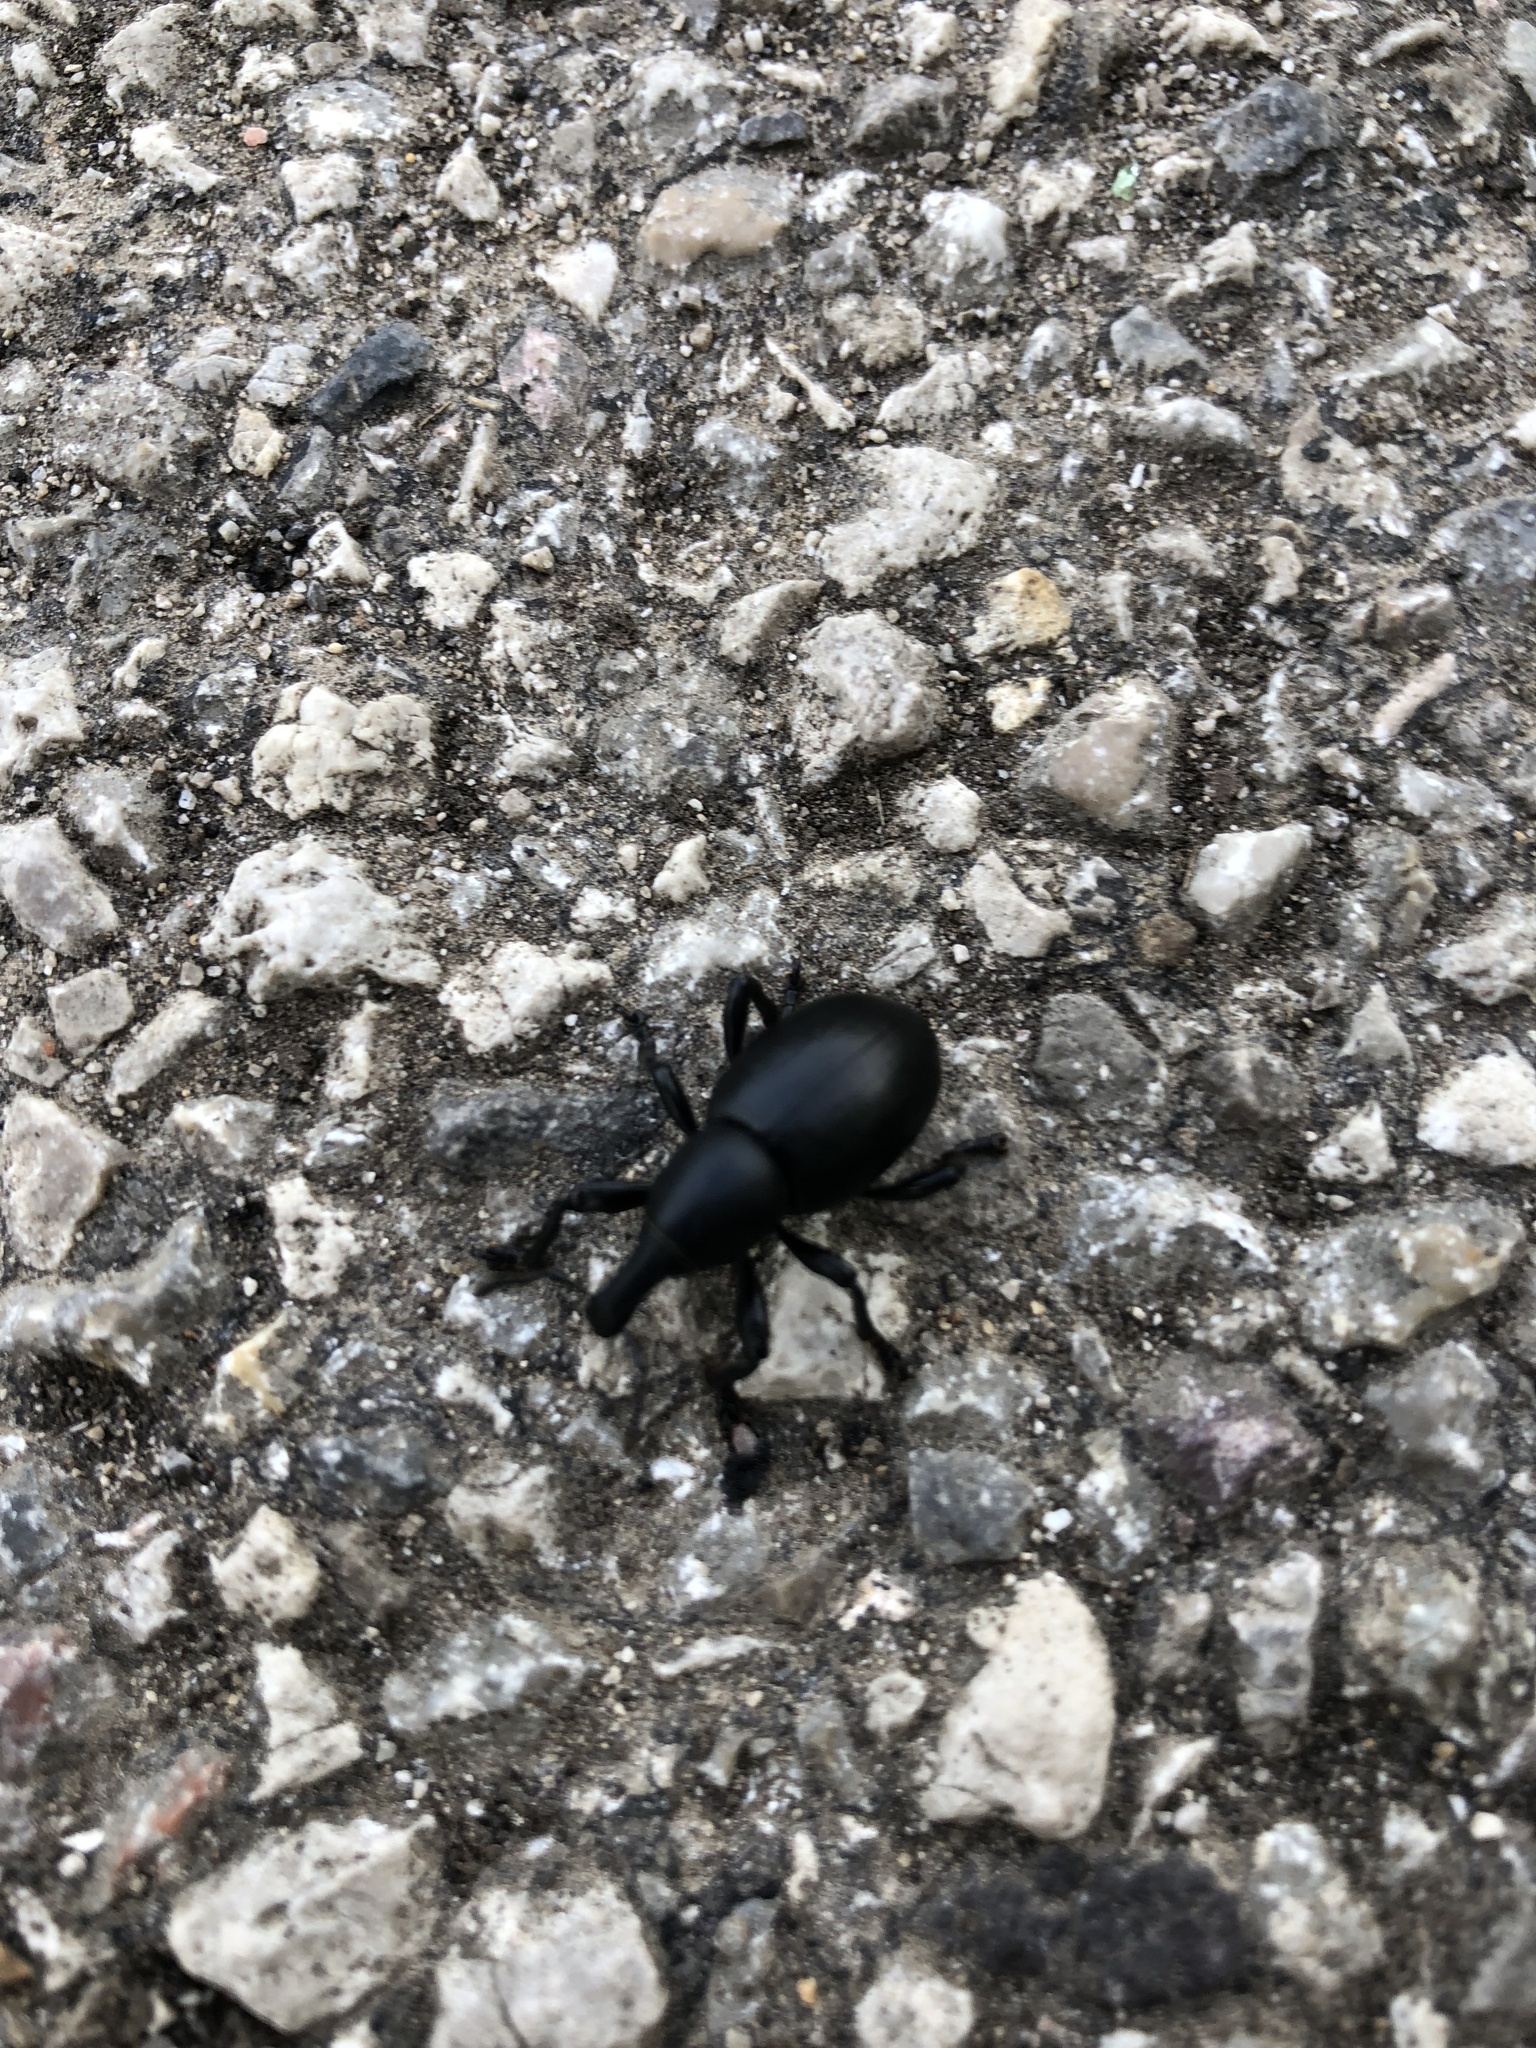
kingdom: Animalia
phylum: Arthropoda
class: Insecta
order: Coleoptera
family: Curculionidae
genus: Liparus
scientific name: Liparus dirus
